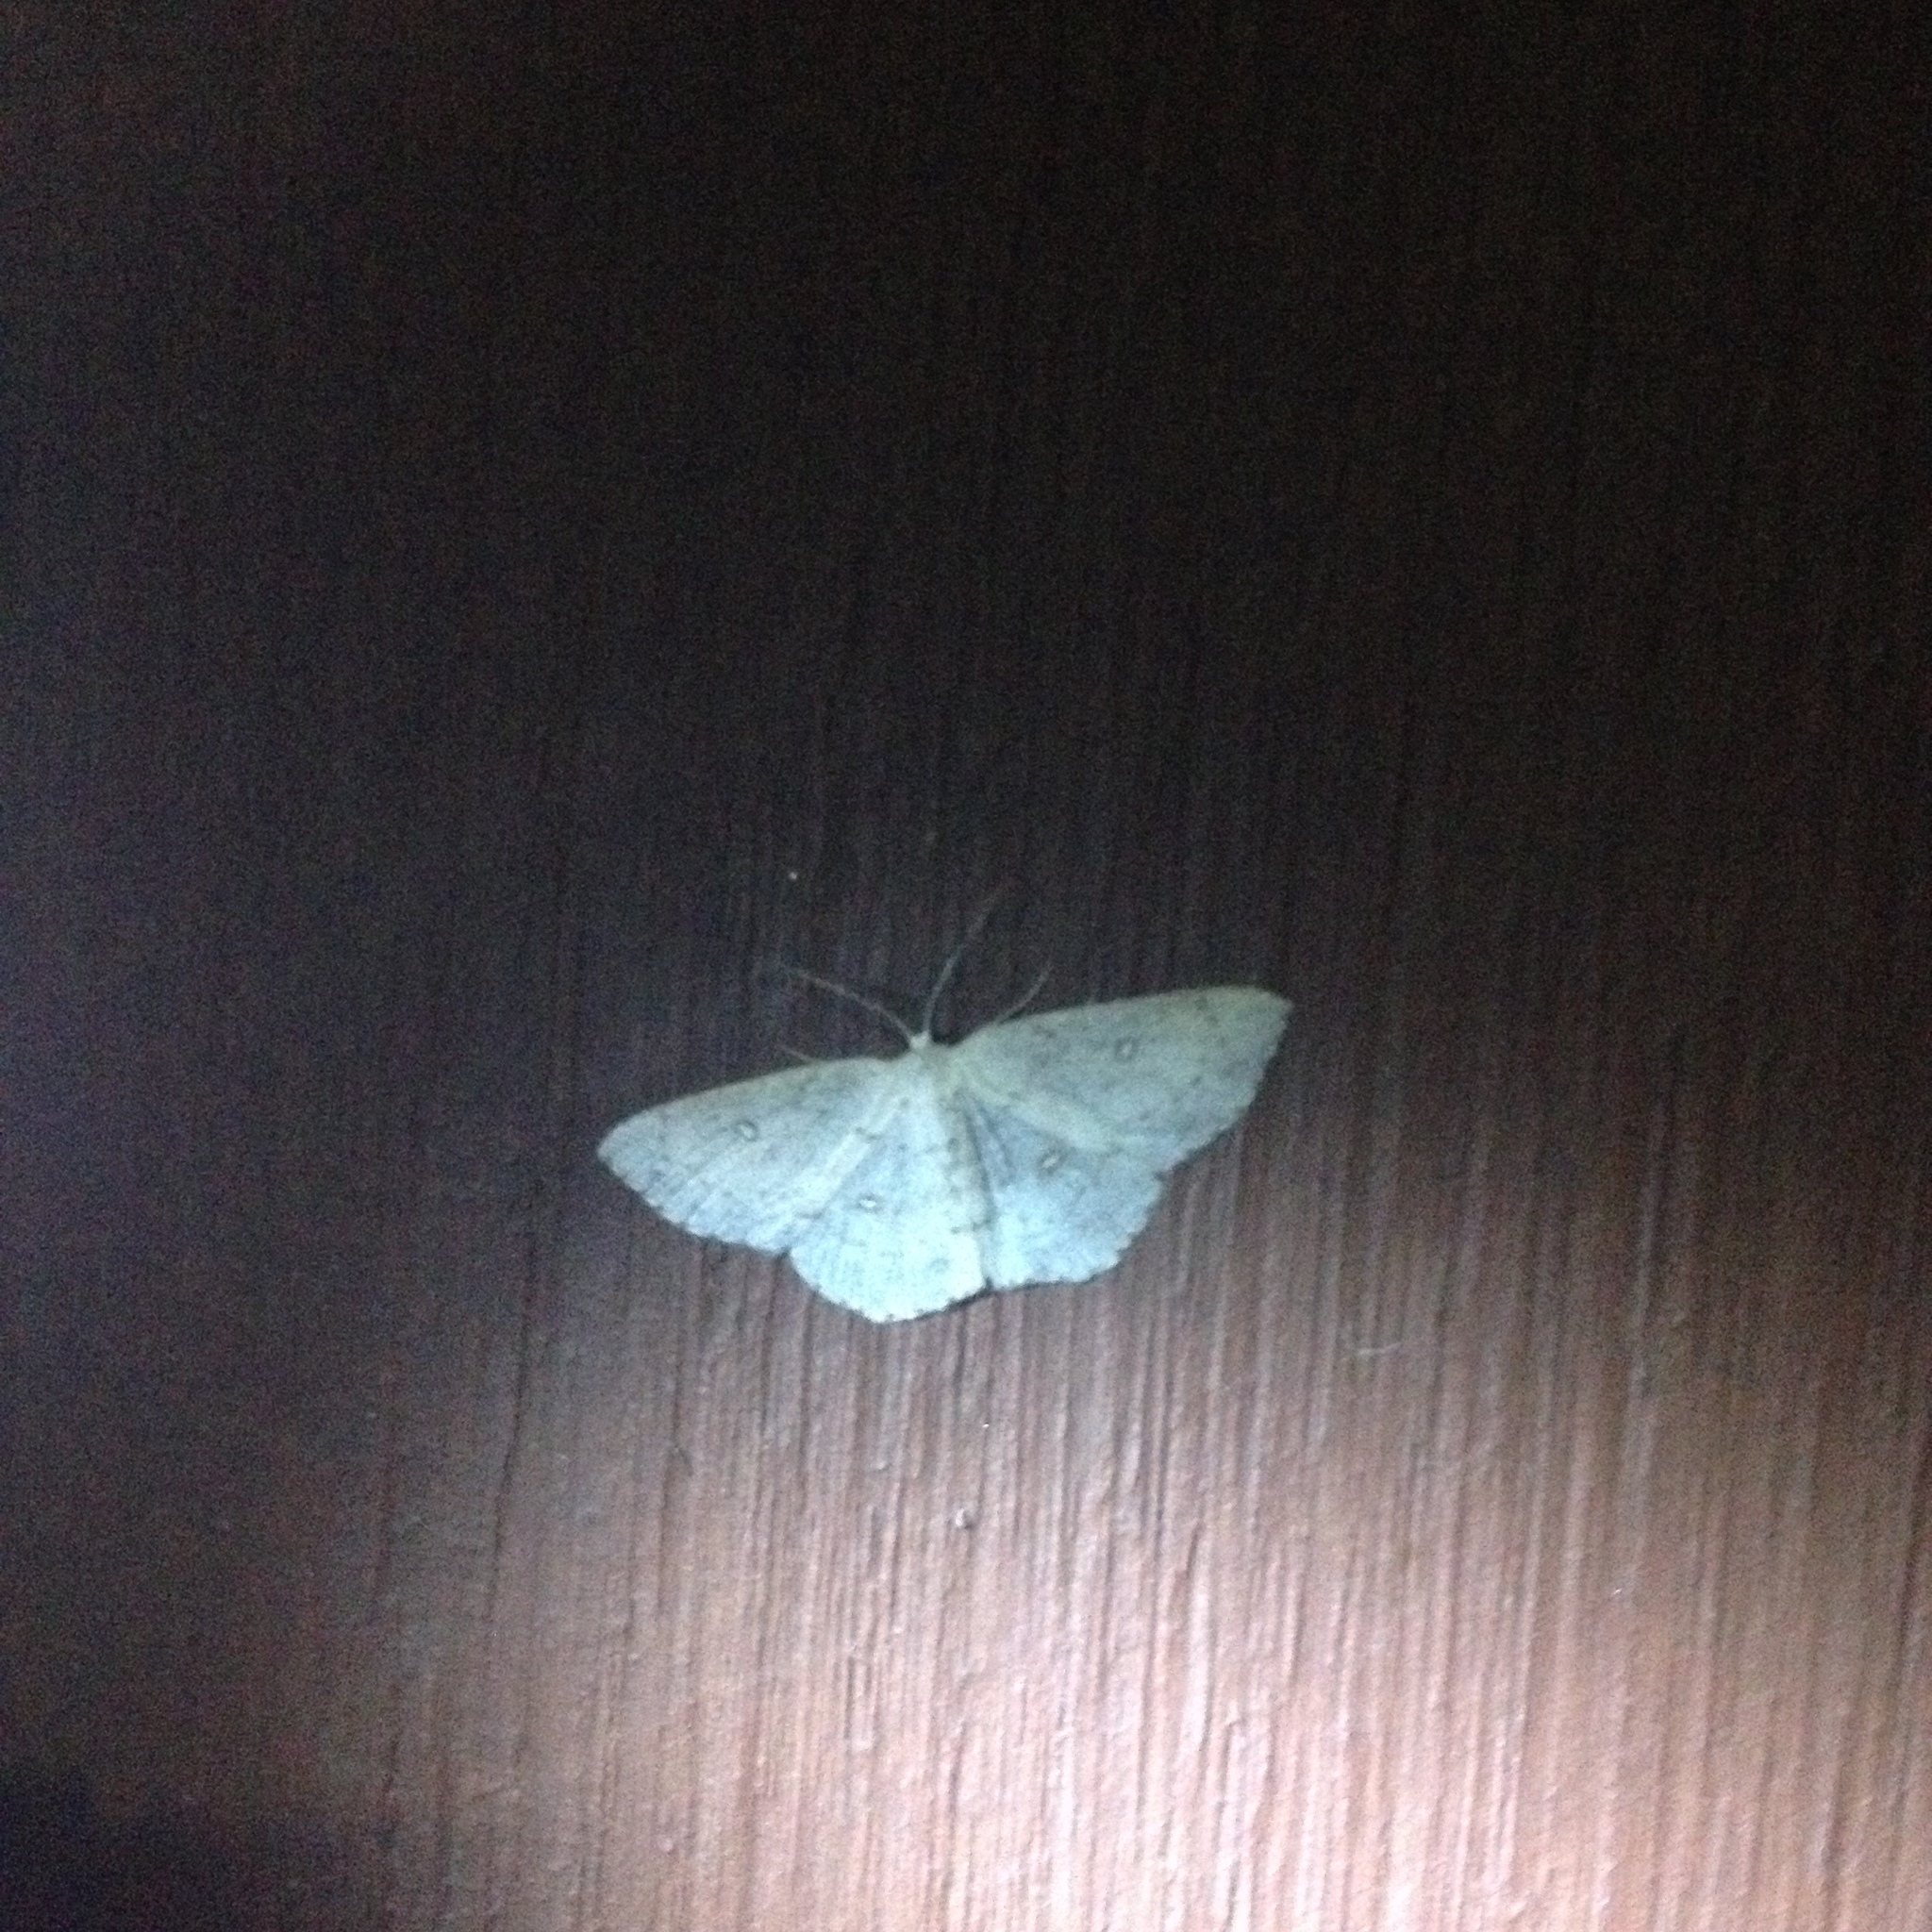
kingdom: Animalia
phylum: Arthropoda
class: Insecta
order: Lepidoptera
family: Geometridae
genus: Cyclophora
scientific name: Cyclophora pendulinaria
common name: Sweet fern geometer
